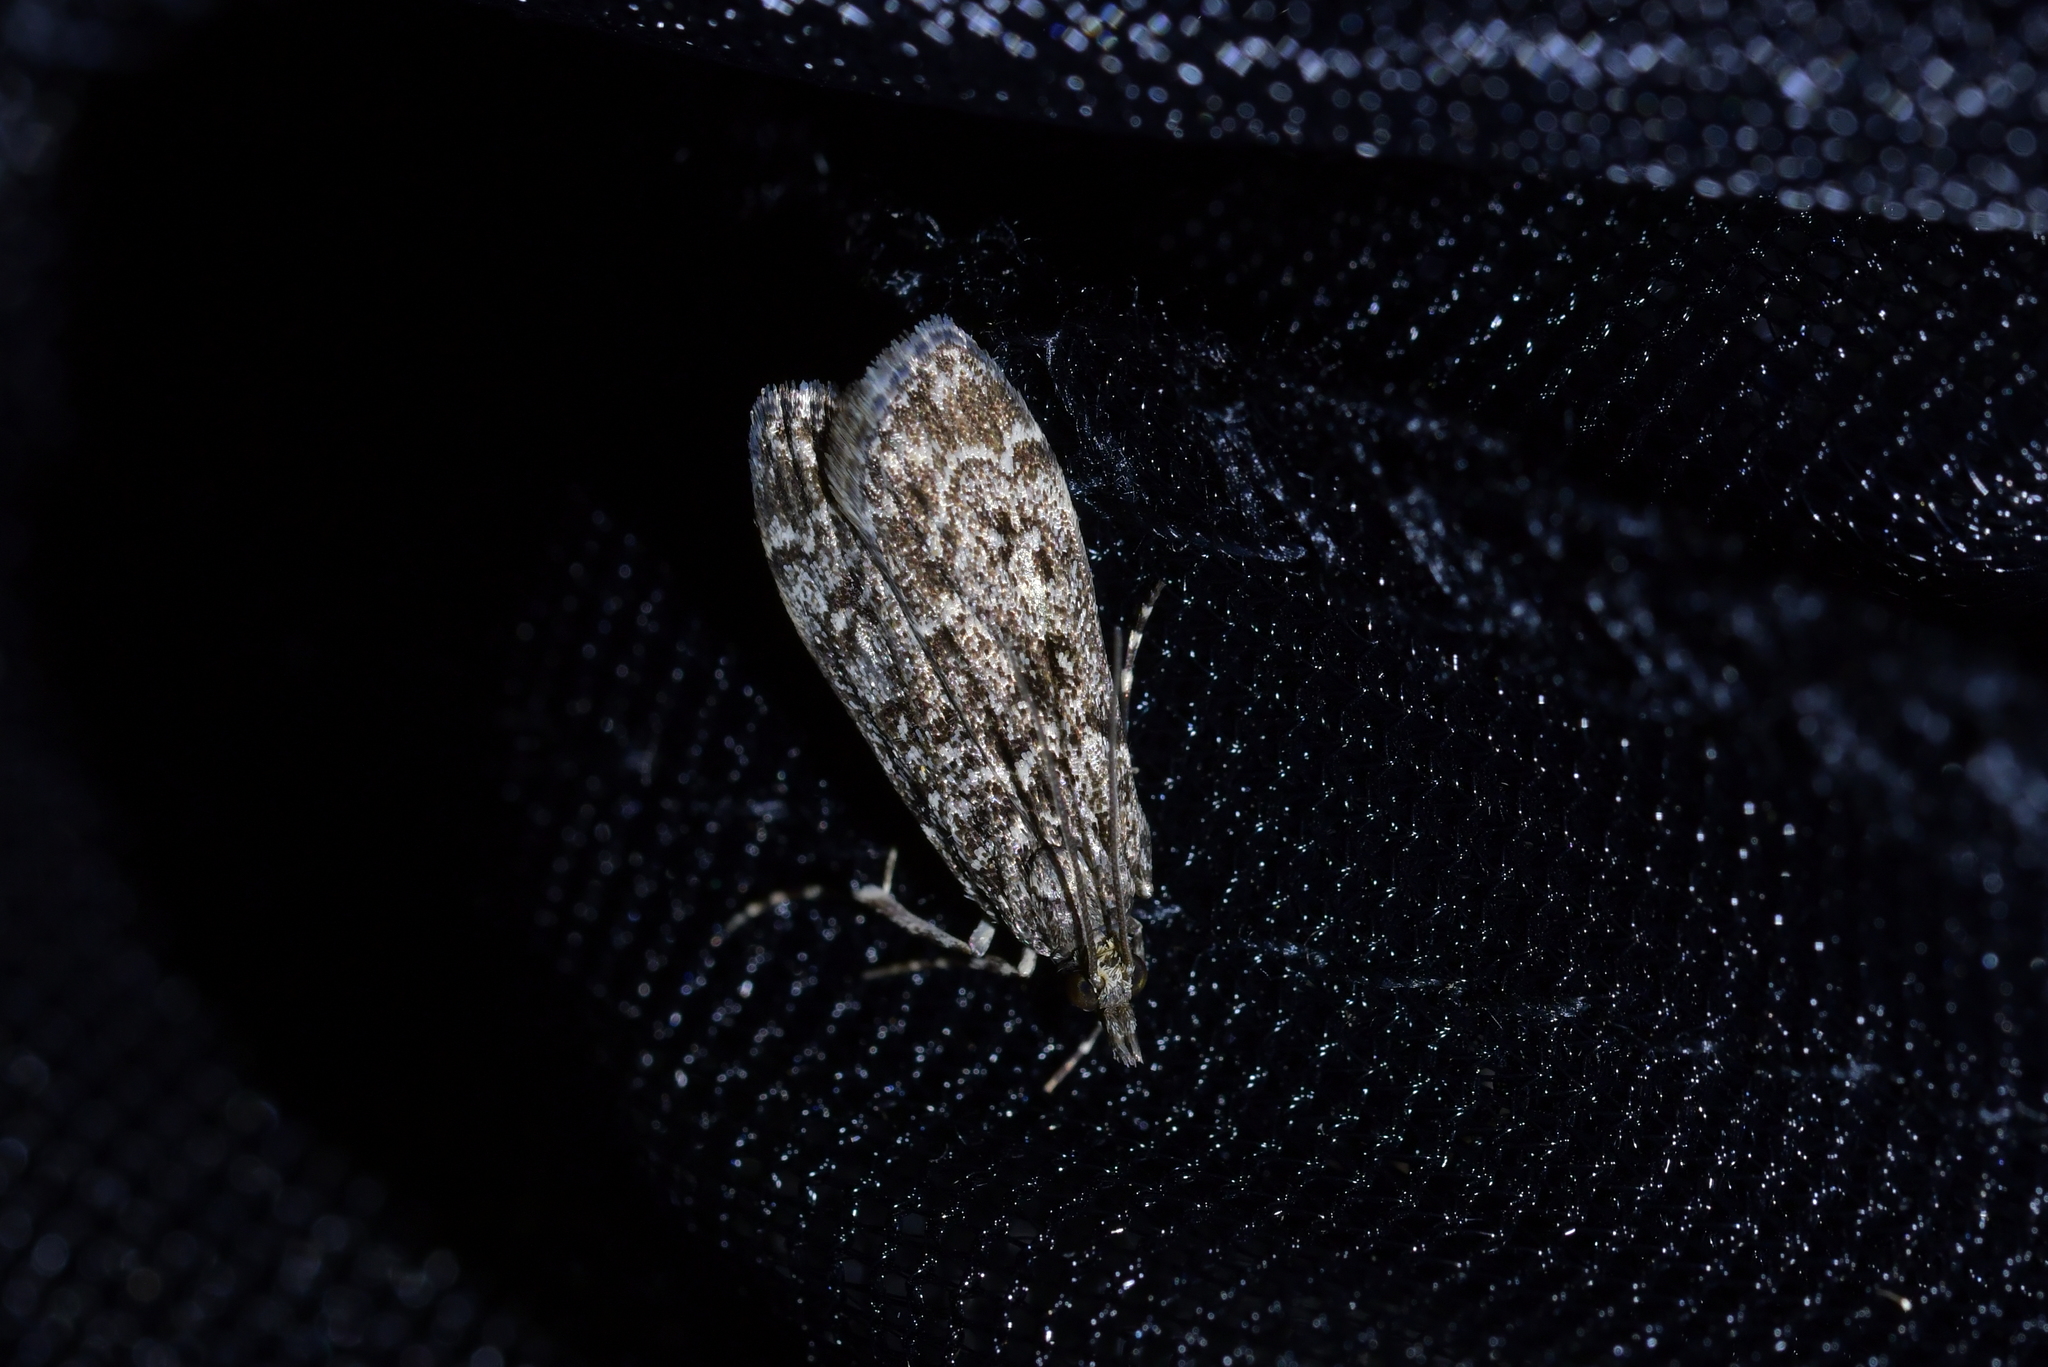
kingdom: Animalia
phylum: Arthropoda
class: Insecta
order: Lepidoptera
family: Crambidae
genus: Eudonia
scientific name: Eudonia philerga
